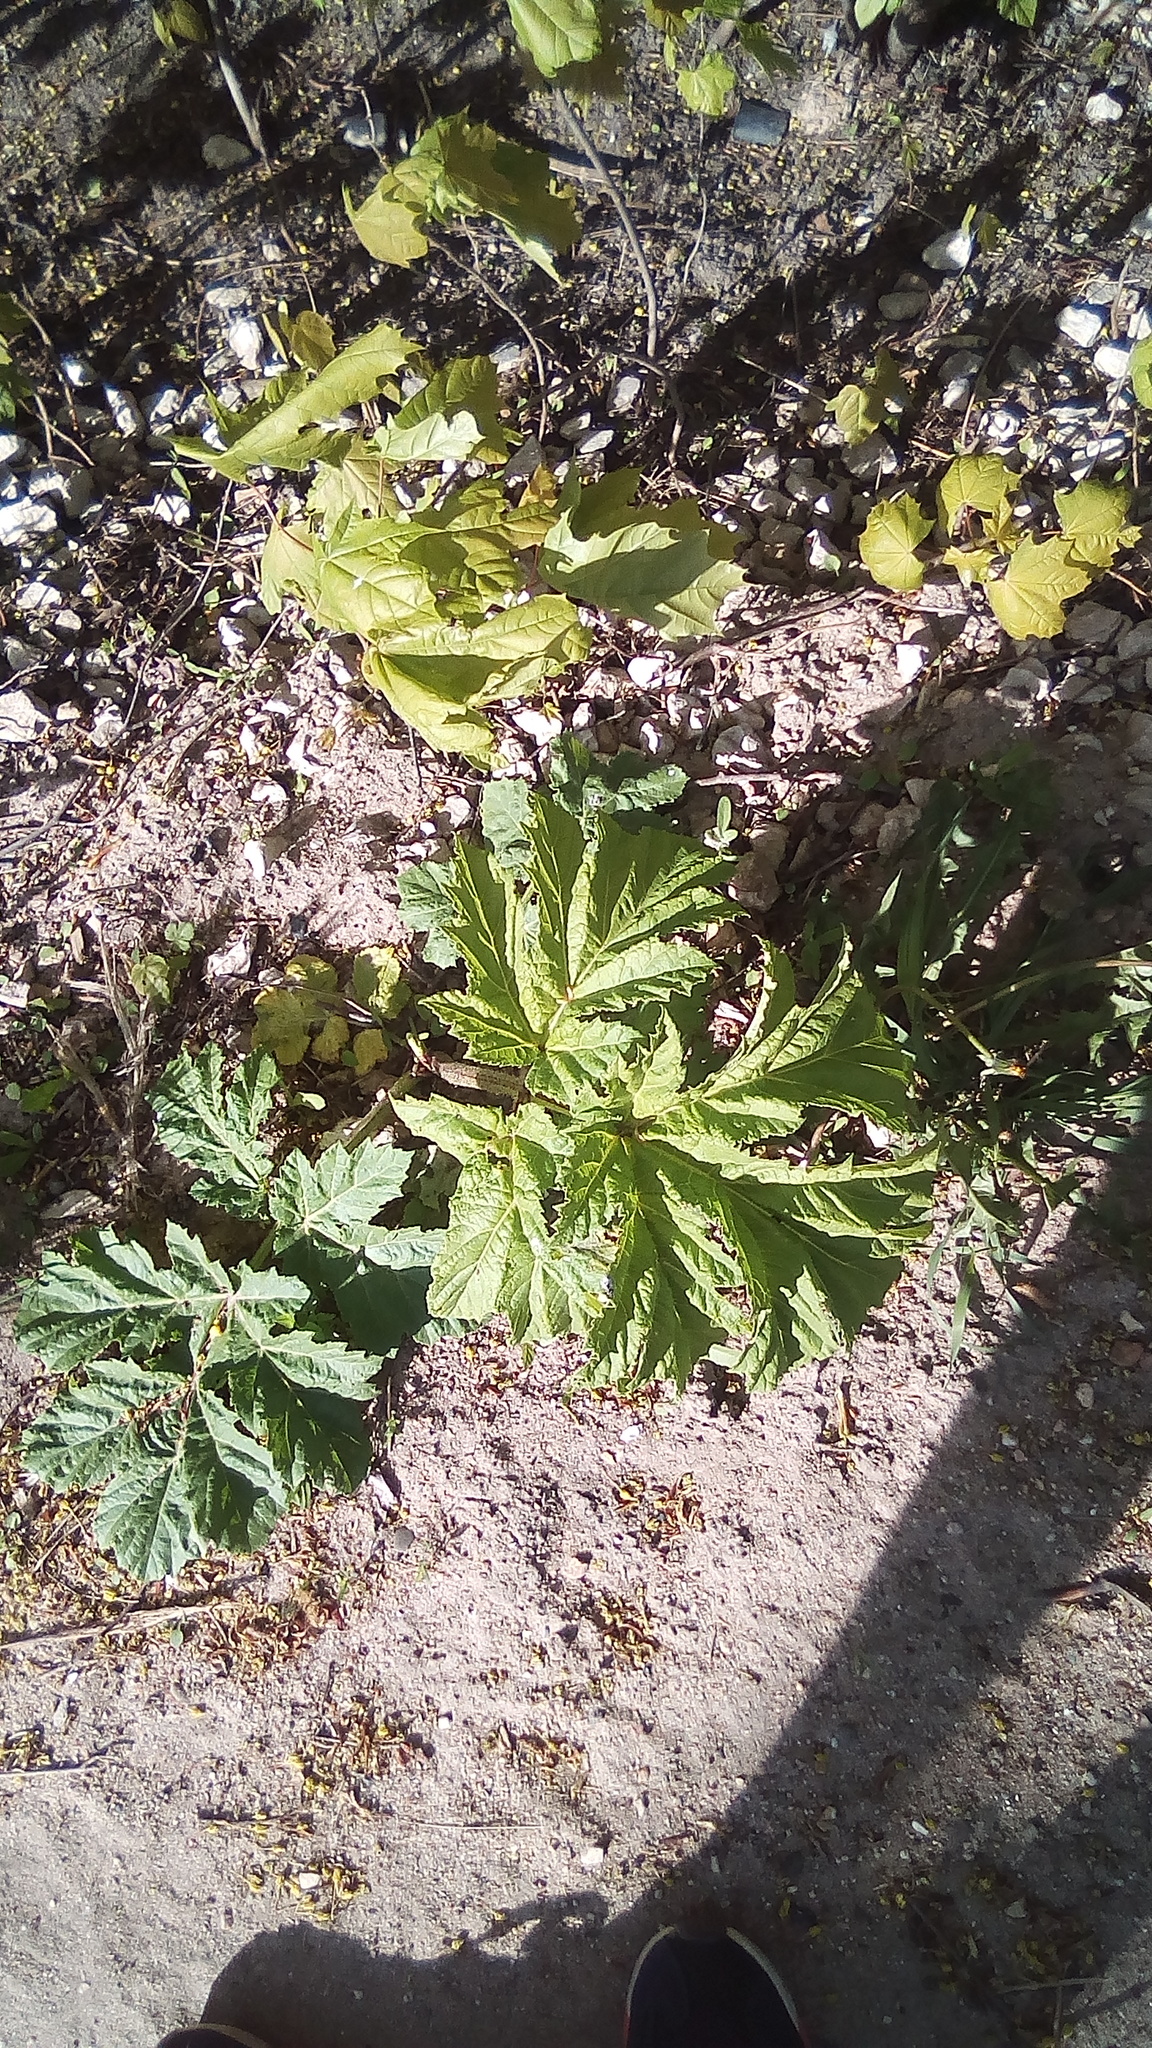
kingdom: Plantae
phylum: Tracheophyta
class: Magnoliopsida
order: Apiales
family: Apiaceae
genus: Heracleum
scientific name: Heracleum sosnowskyi
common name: Sosnowsky's hogweed
